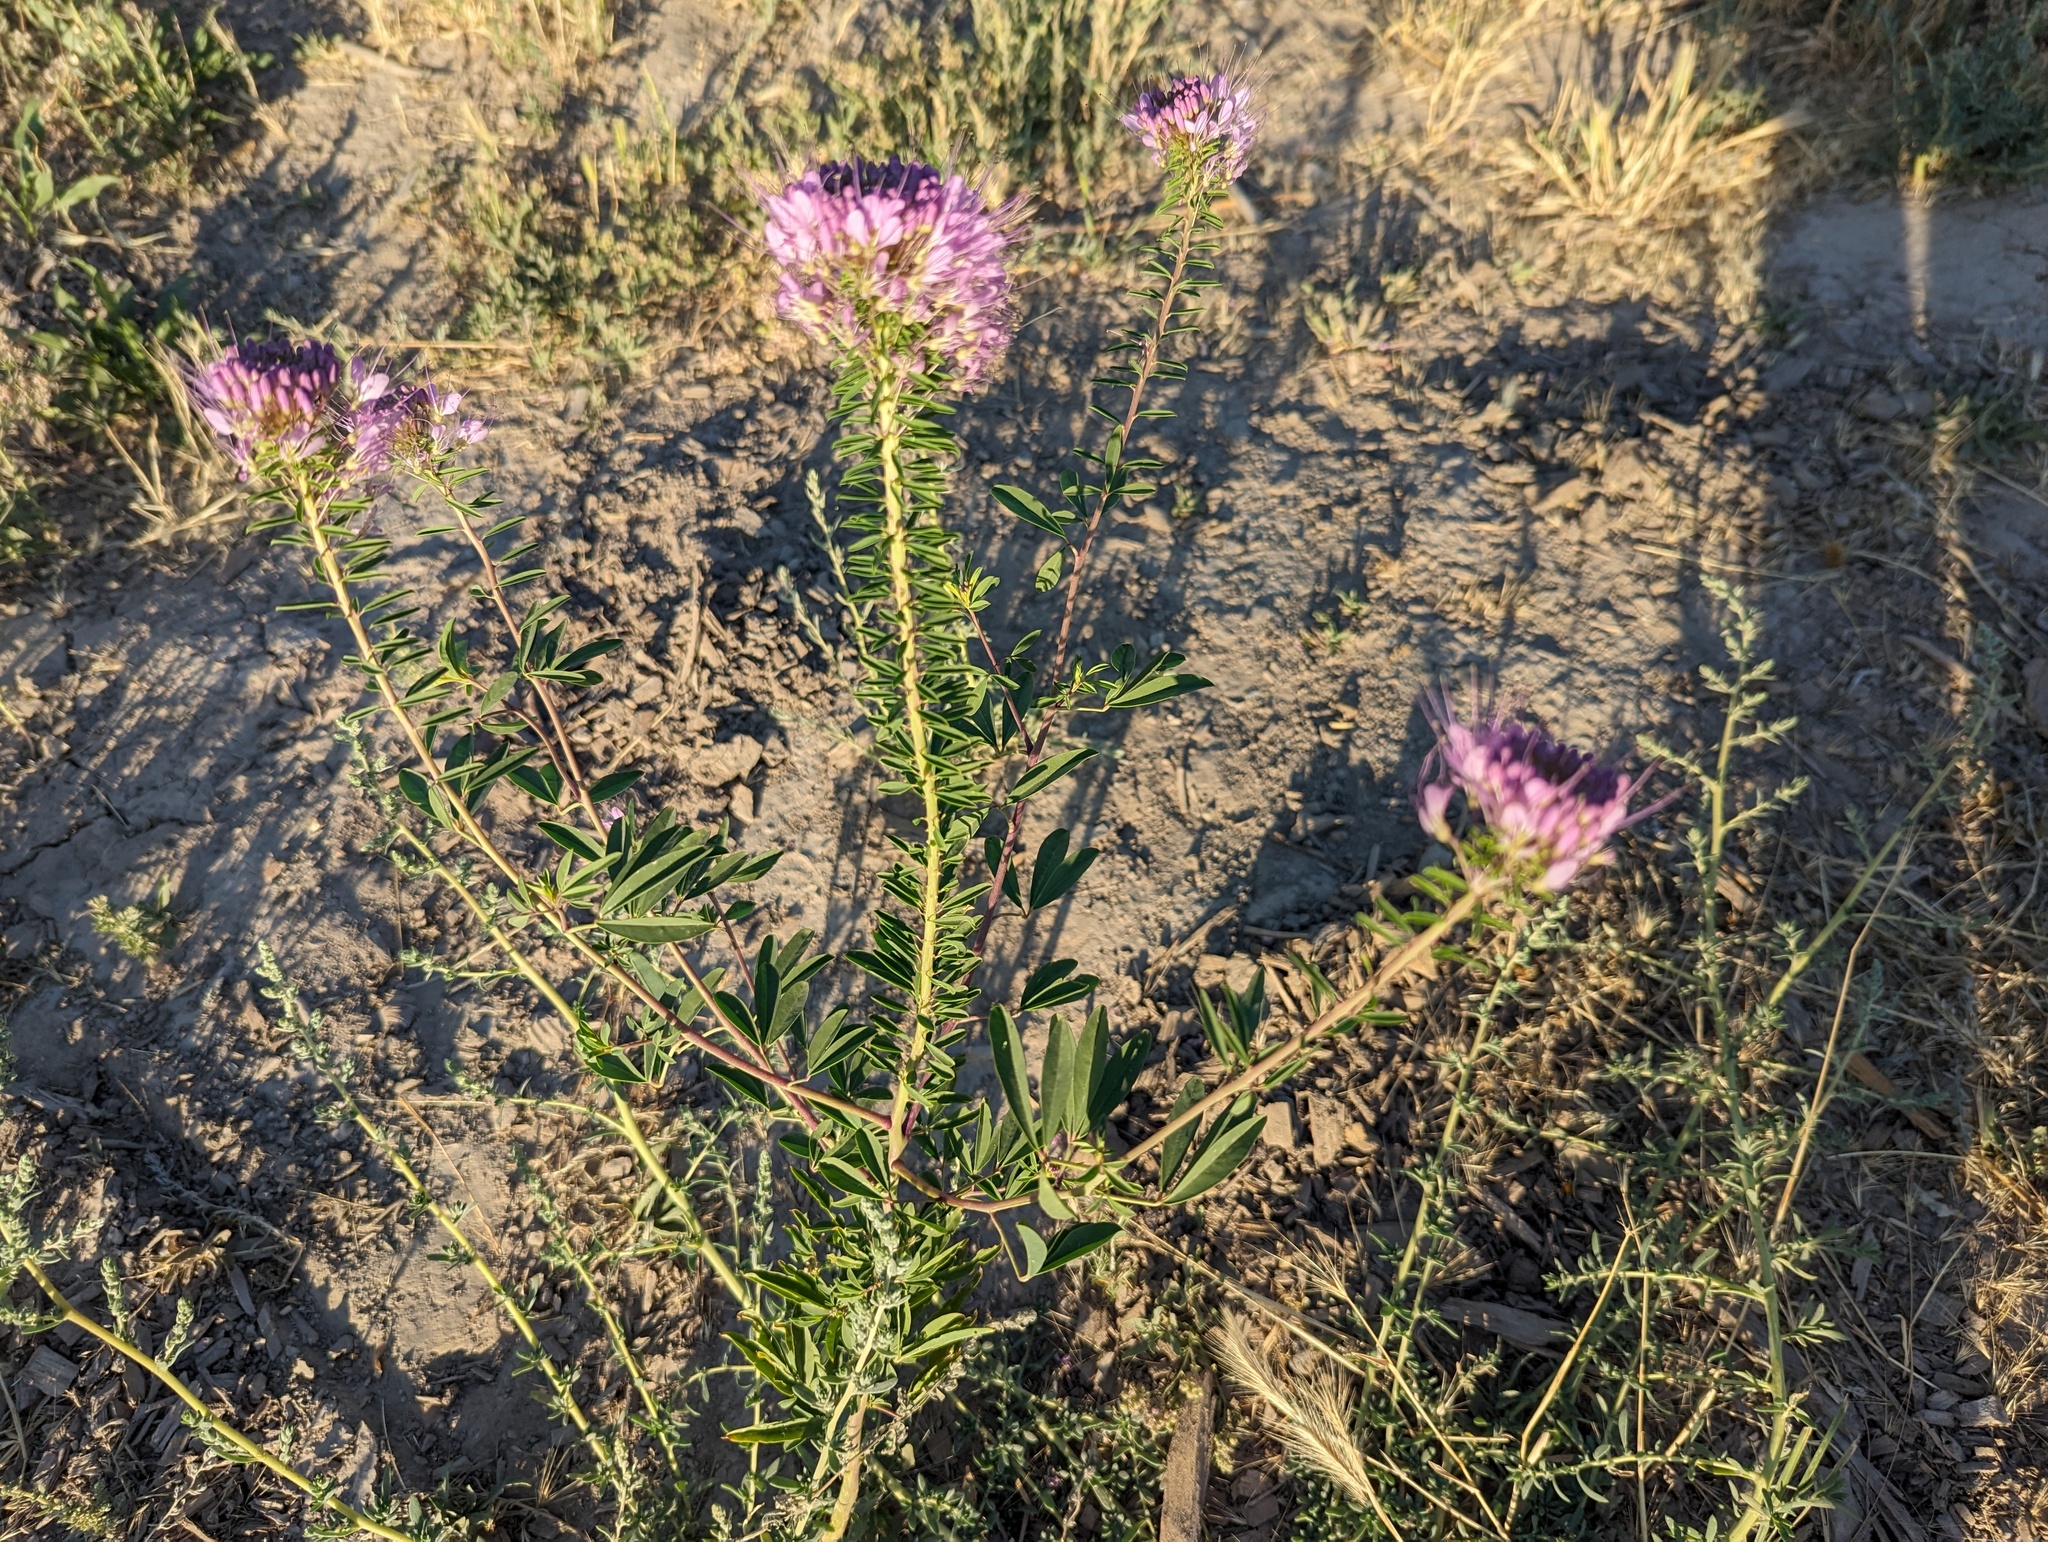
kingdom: Plantae
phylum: Tracheophyta
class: Magnoliopsida
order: Brassicales
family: Cleomaceae
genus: Cleomella
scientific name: Cleomella serrulata
